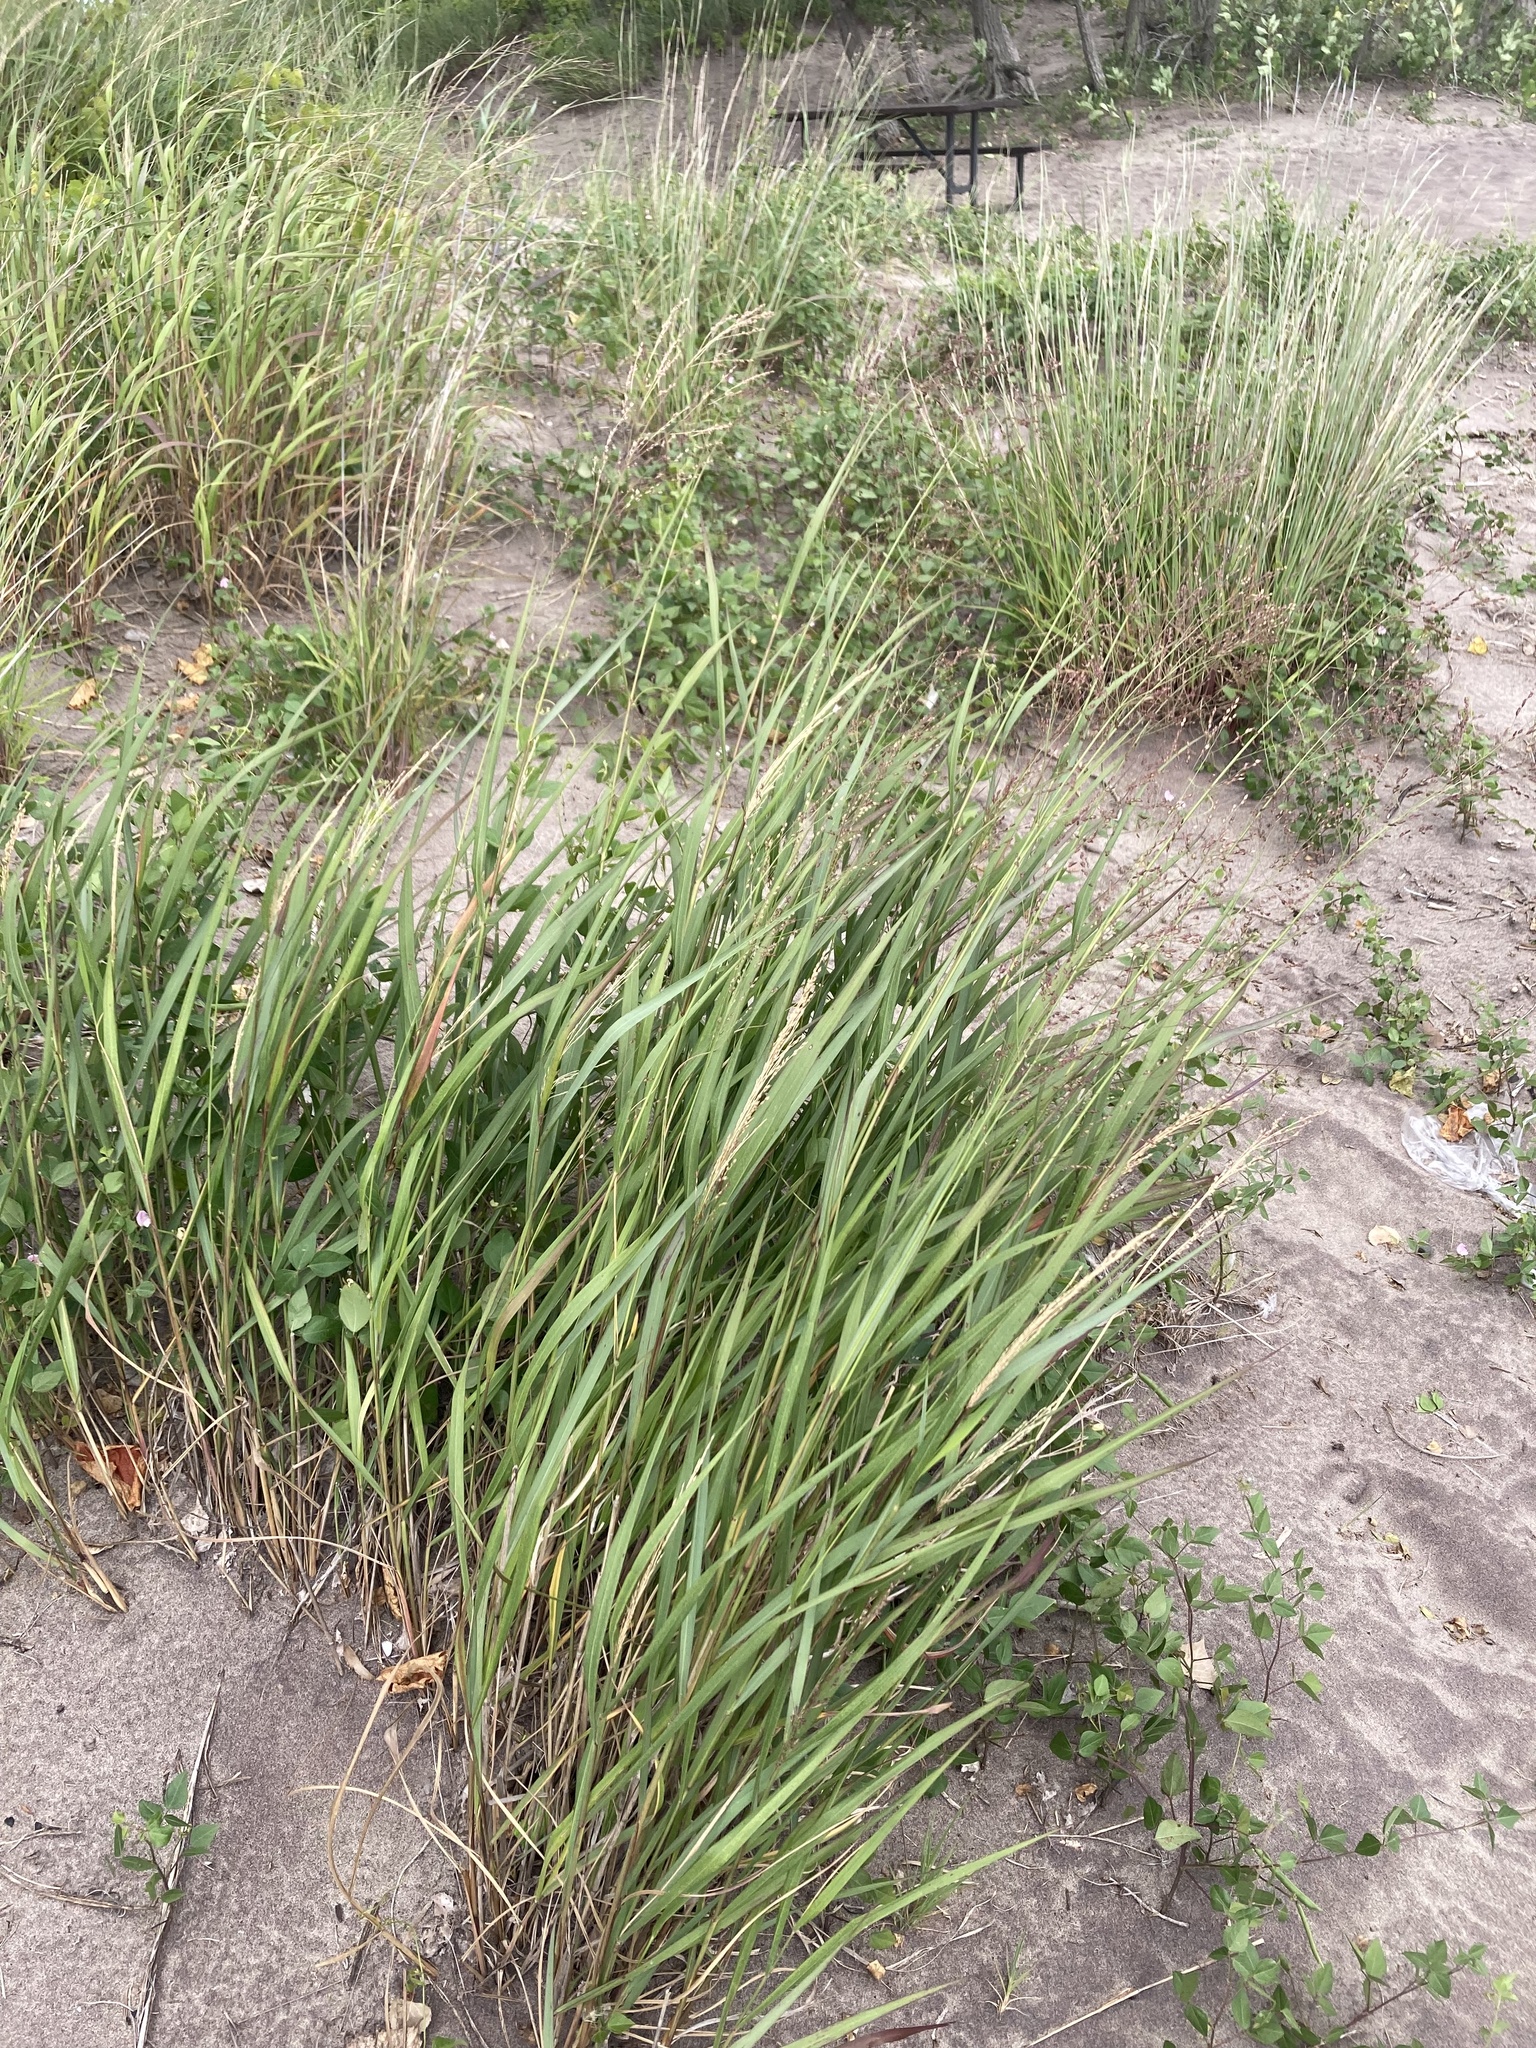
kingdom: Plantae
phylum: Tracheophyta
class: Liliopsida
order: Poales
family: Poaceae
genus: Panicum
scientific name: Panicum virgatum
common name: Switchgrass
